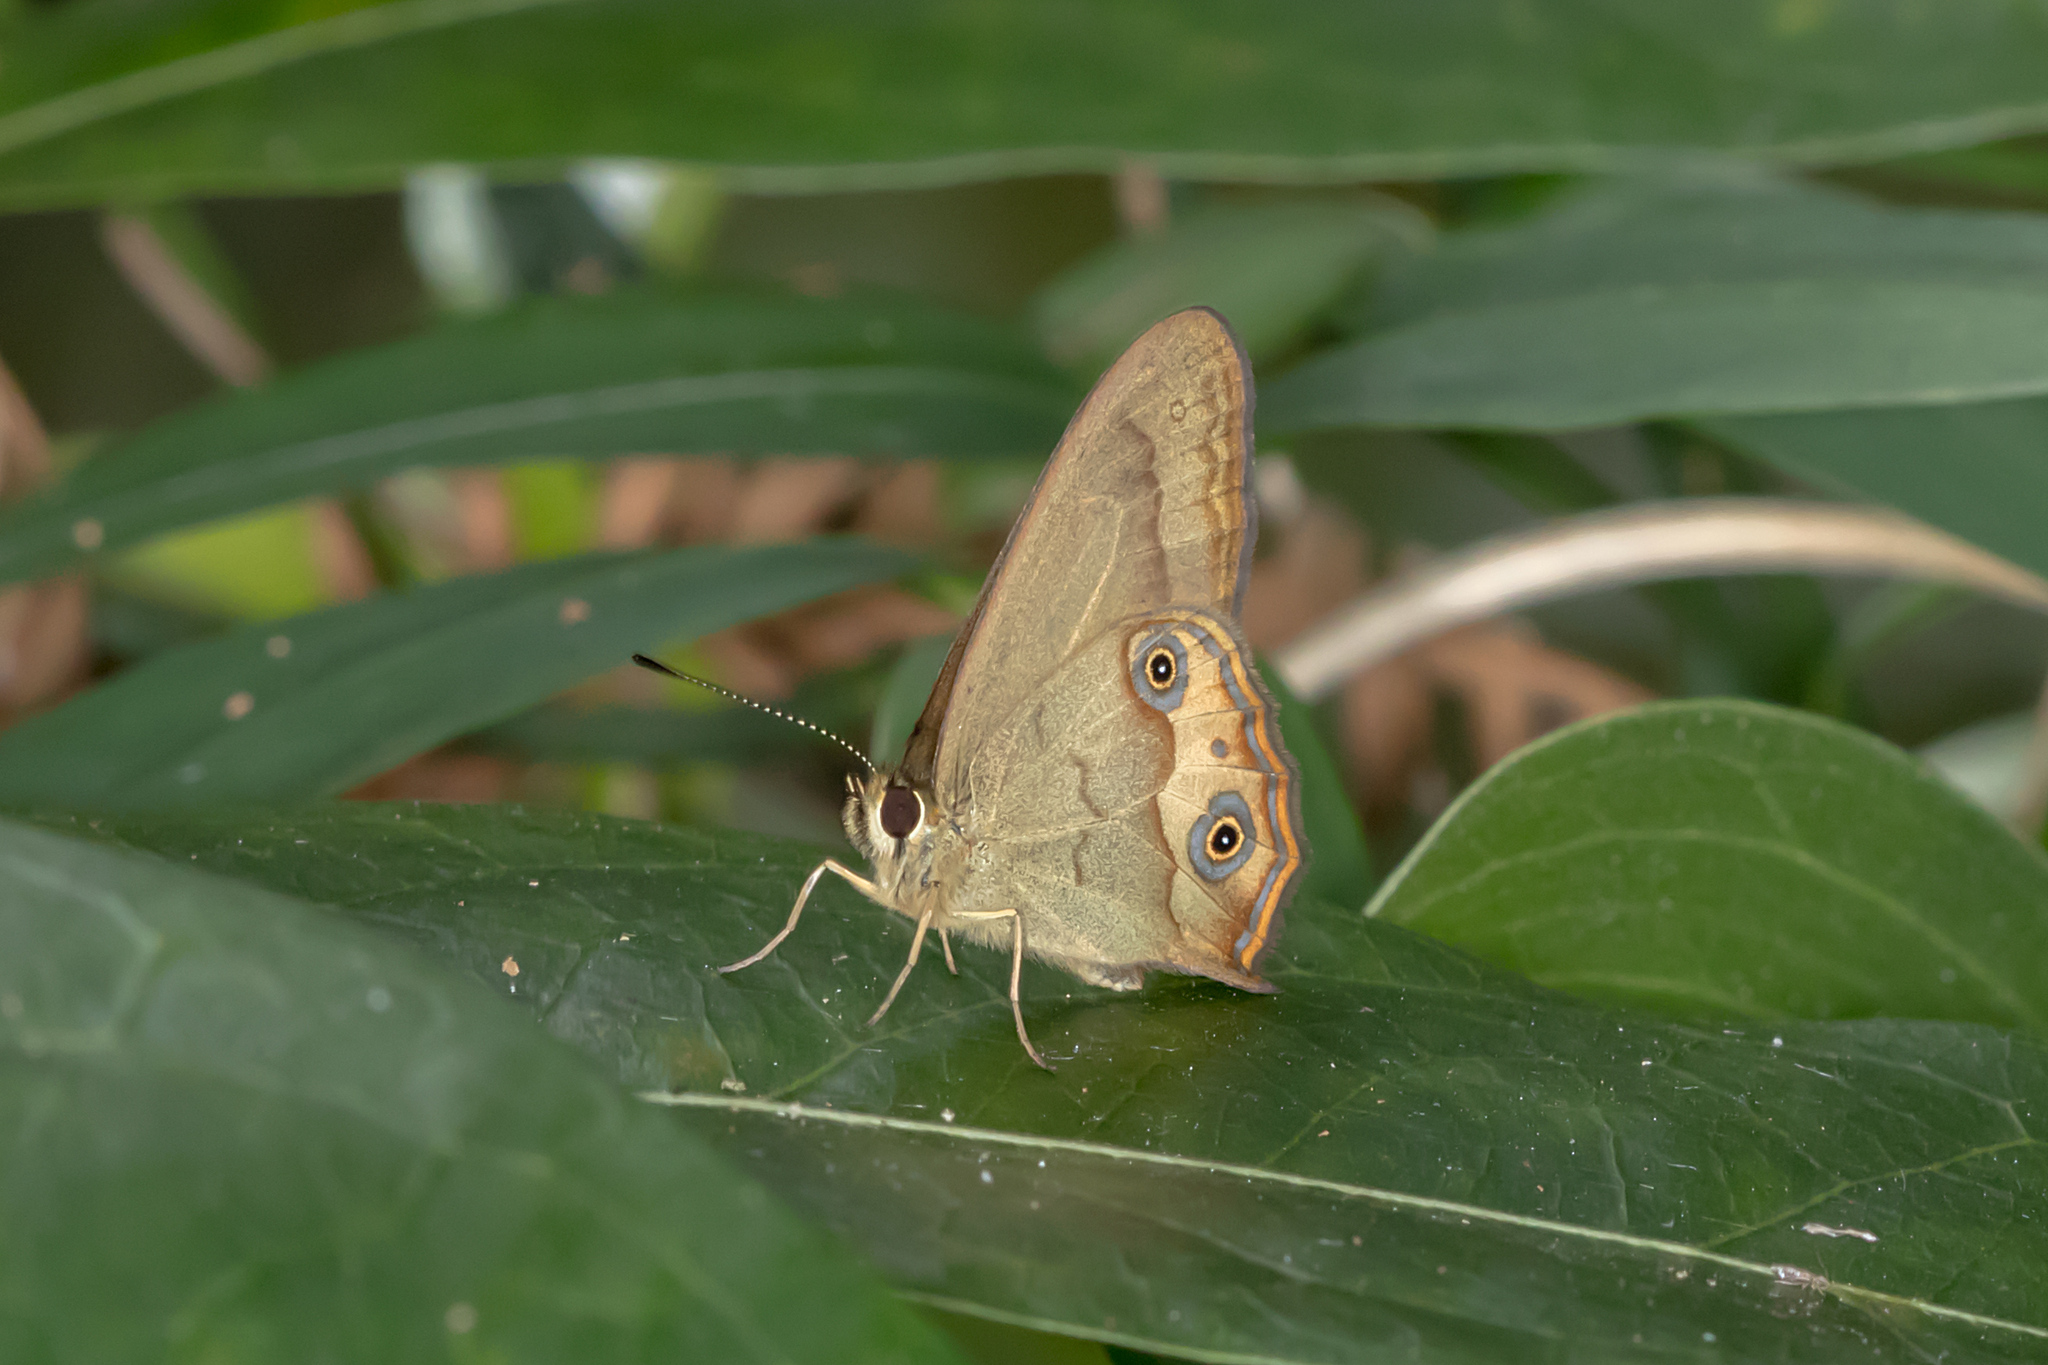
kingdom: Animalia
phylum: Arthropoda
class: Insecta
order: Lepidoptera
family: Nymphalidae
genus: Hypocysta
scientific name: Hypocysta metirius
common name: Brown ringlet
